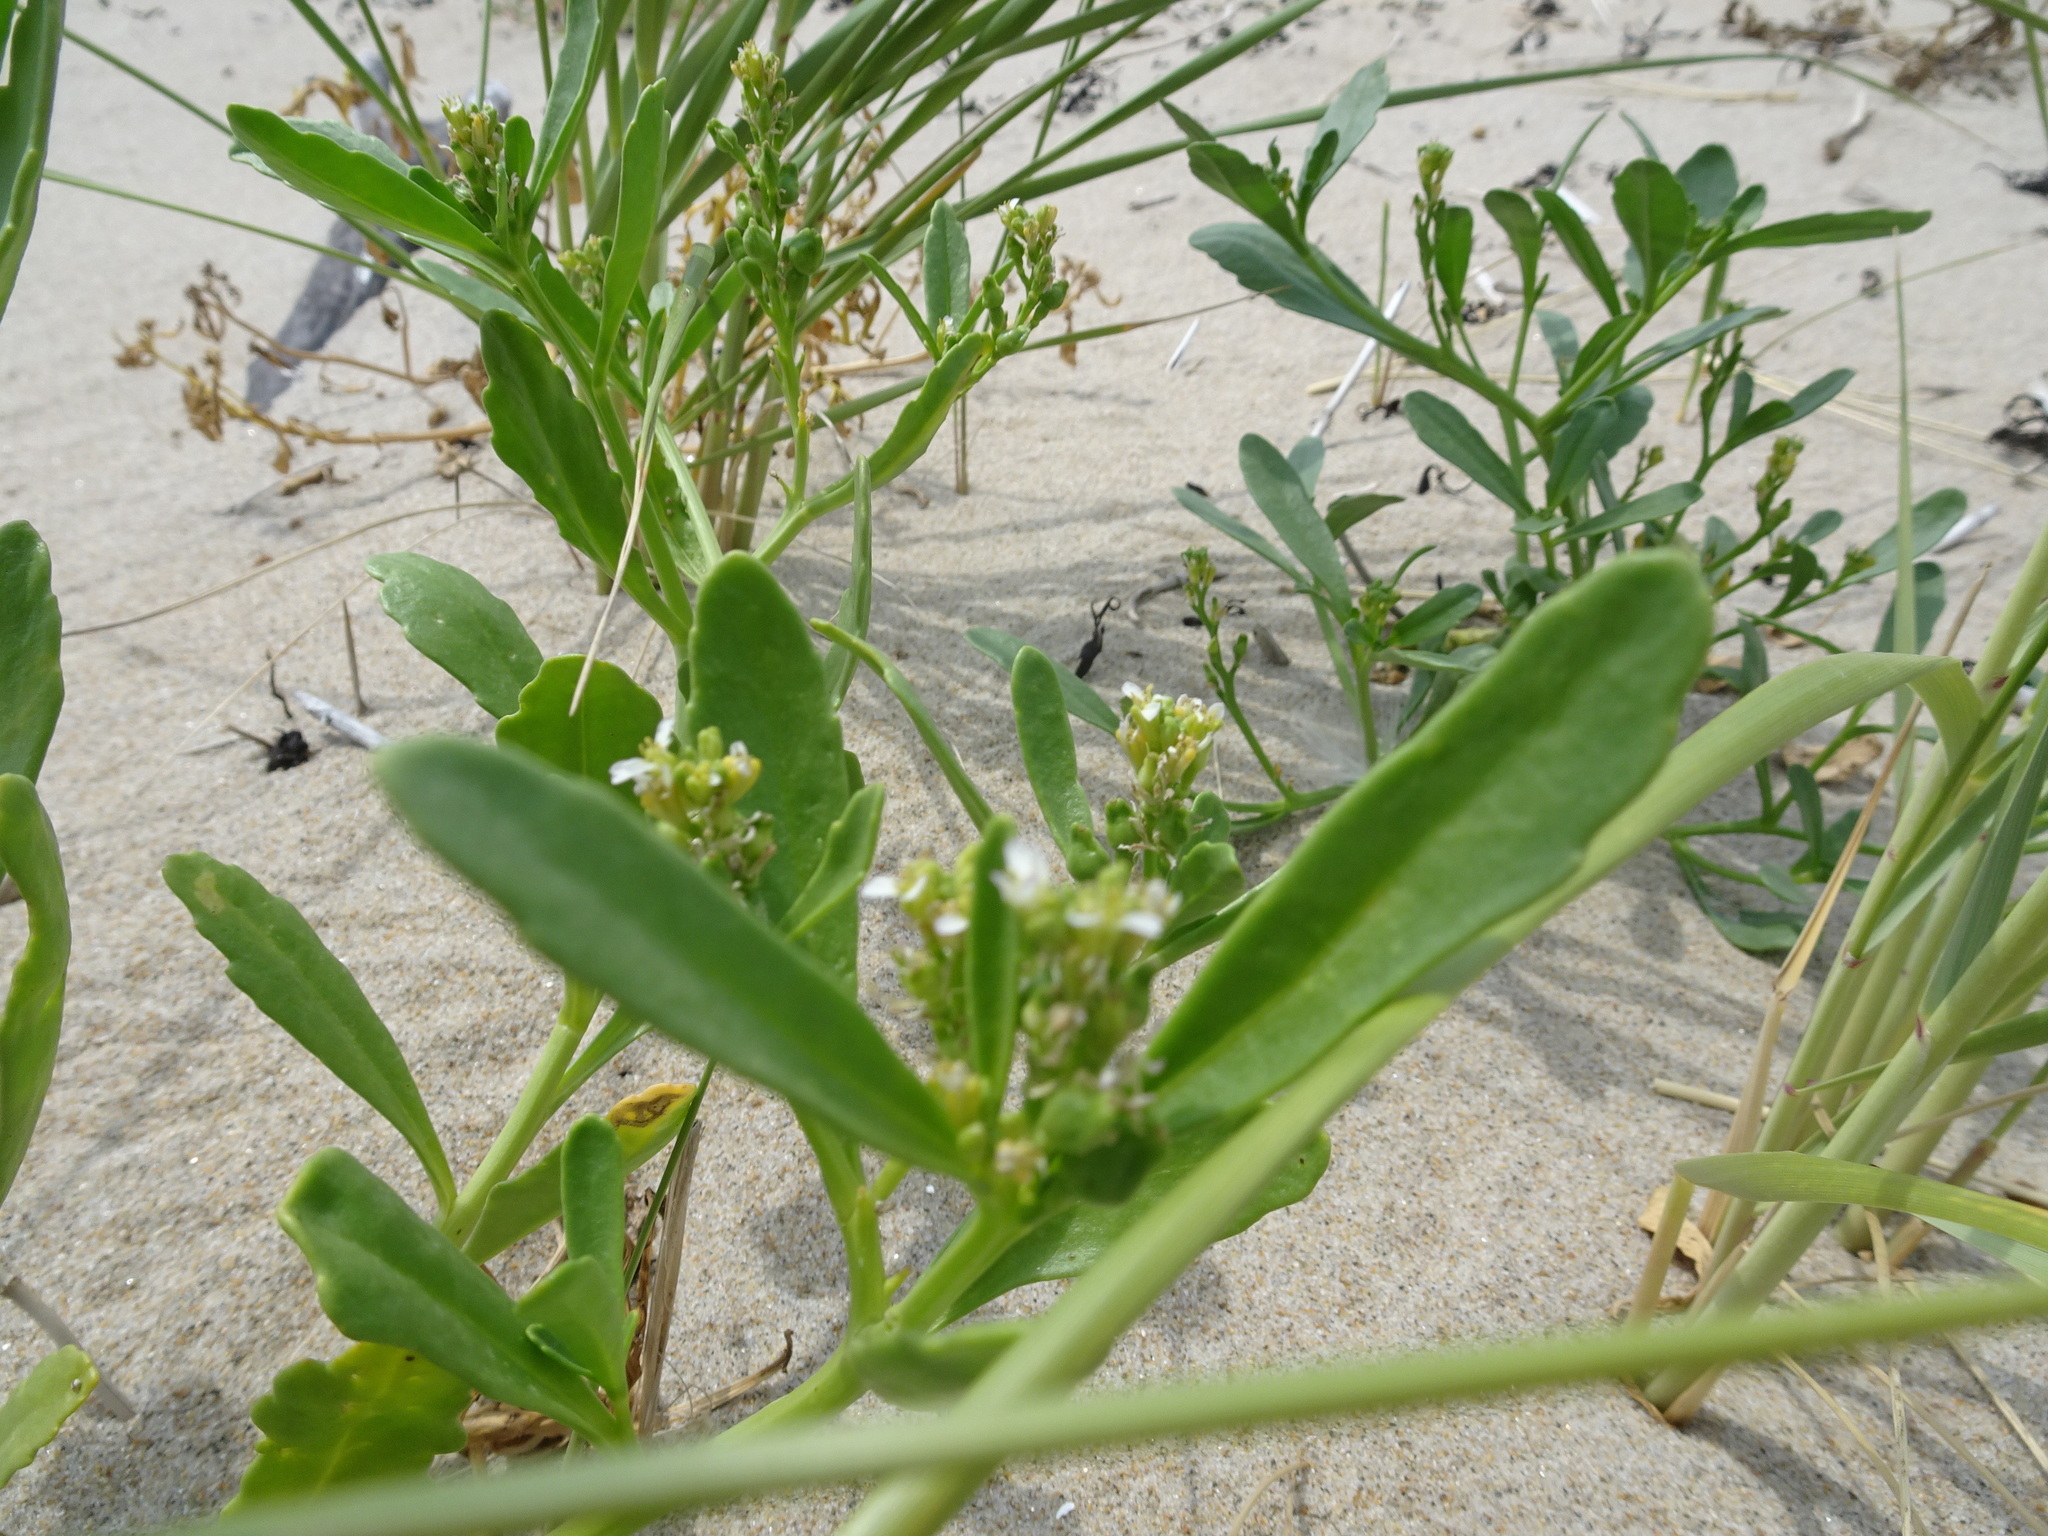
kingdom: Plantae
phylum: Tracheophyta
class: Magnoliopsida
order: Brassicales
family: Brassicaceae
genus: Cakile
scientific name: Cakile edentula
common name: American sea rocket
